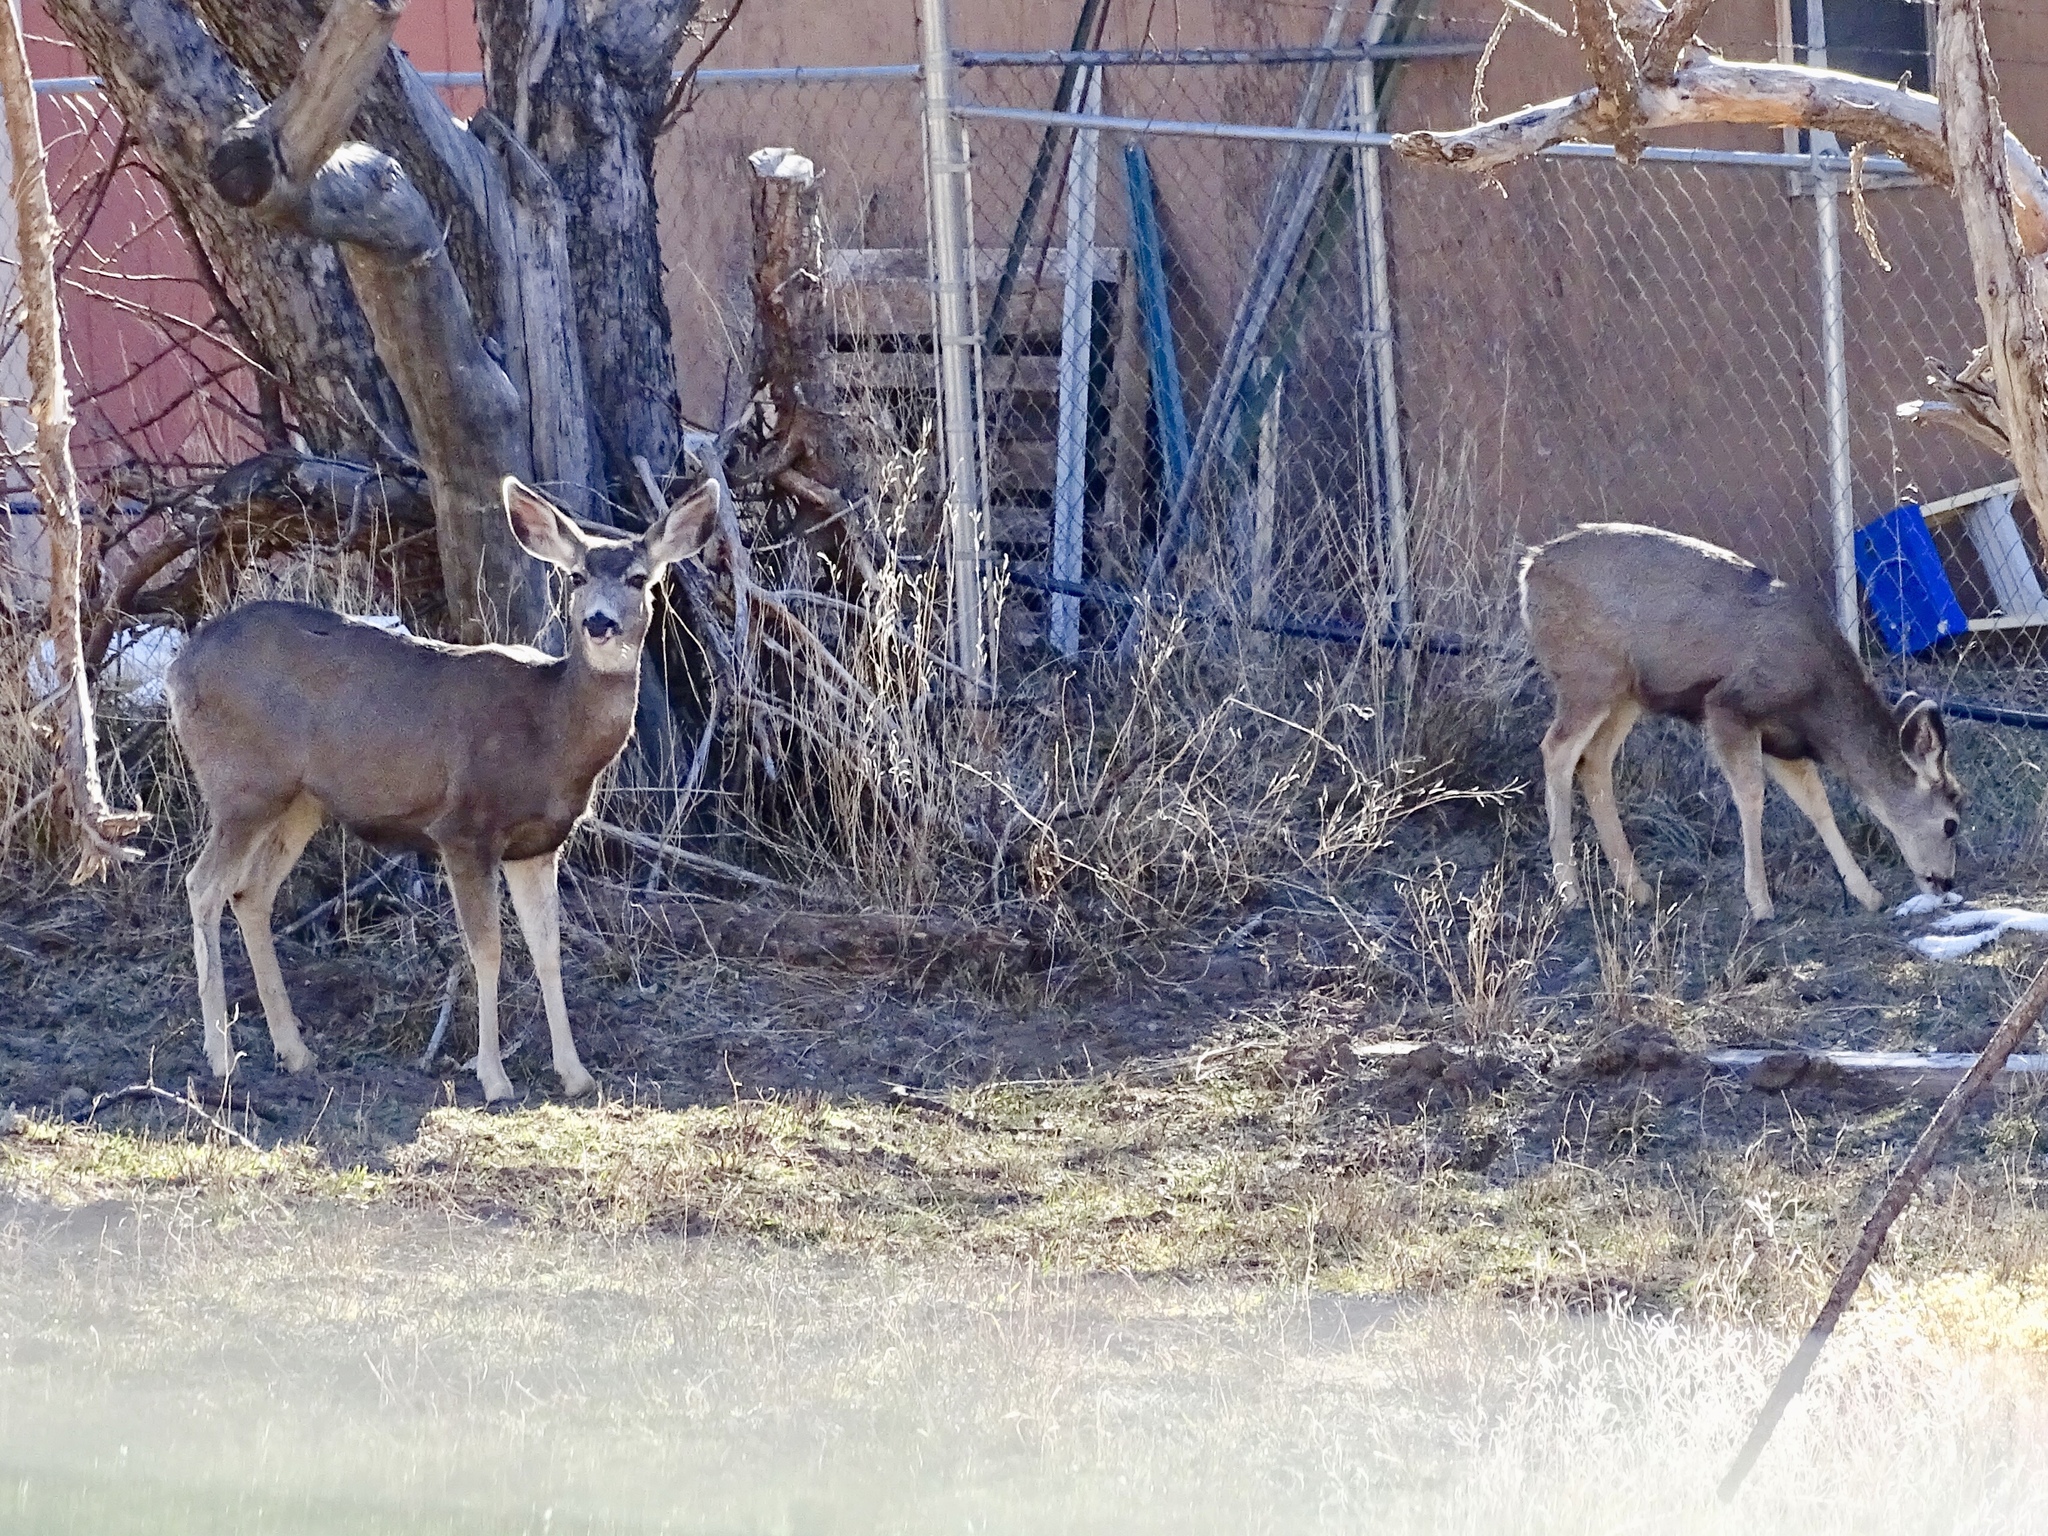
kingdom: Animalia
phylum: Chordata
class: Mammalia
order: Artiodactyla
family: Cervidae
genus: Odocoileus
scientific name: Odocoileus hemionus
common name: Mule deer
